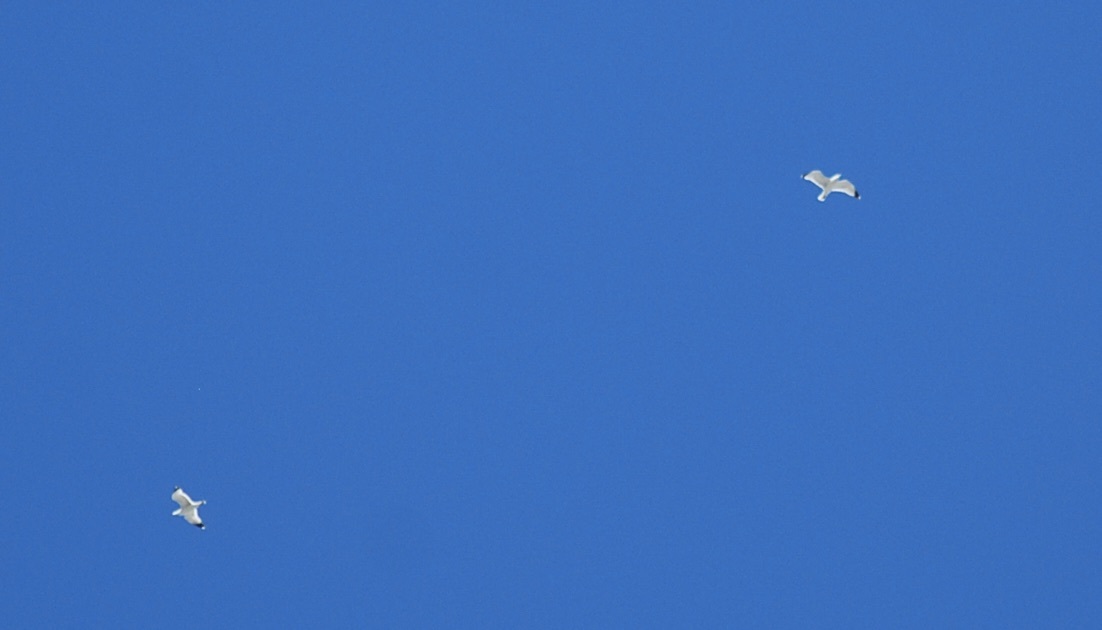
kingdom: Animalia
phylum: Chordata
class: Aves
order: Charadriiformes
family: Laridae
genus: Larus
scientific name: Larus californicus
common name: California gull
